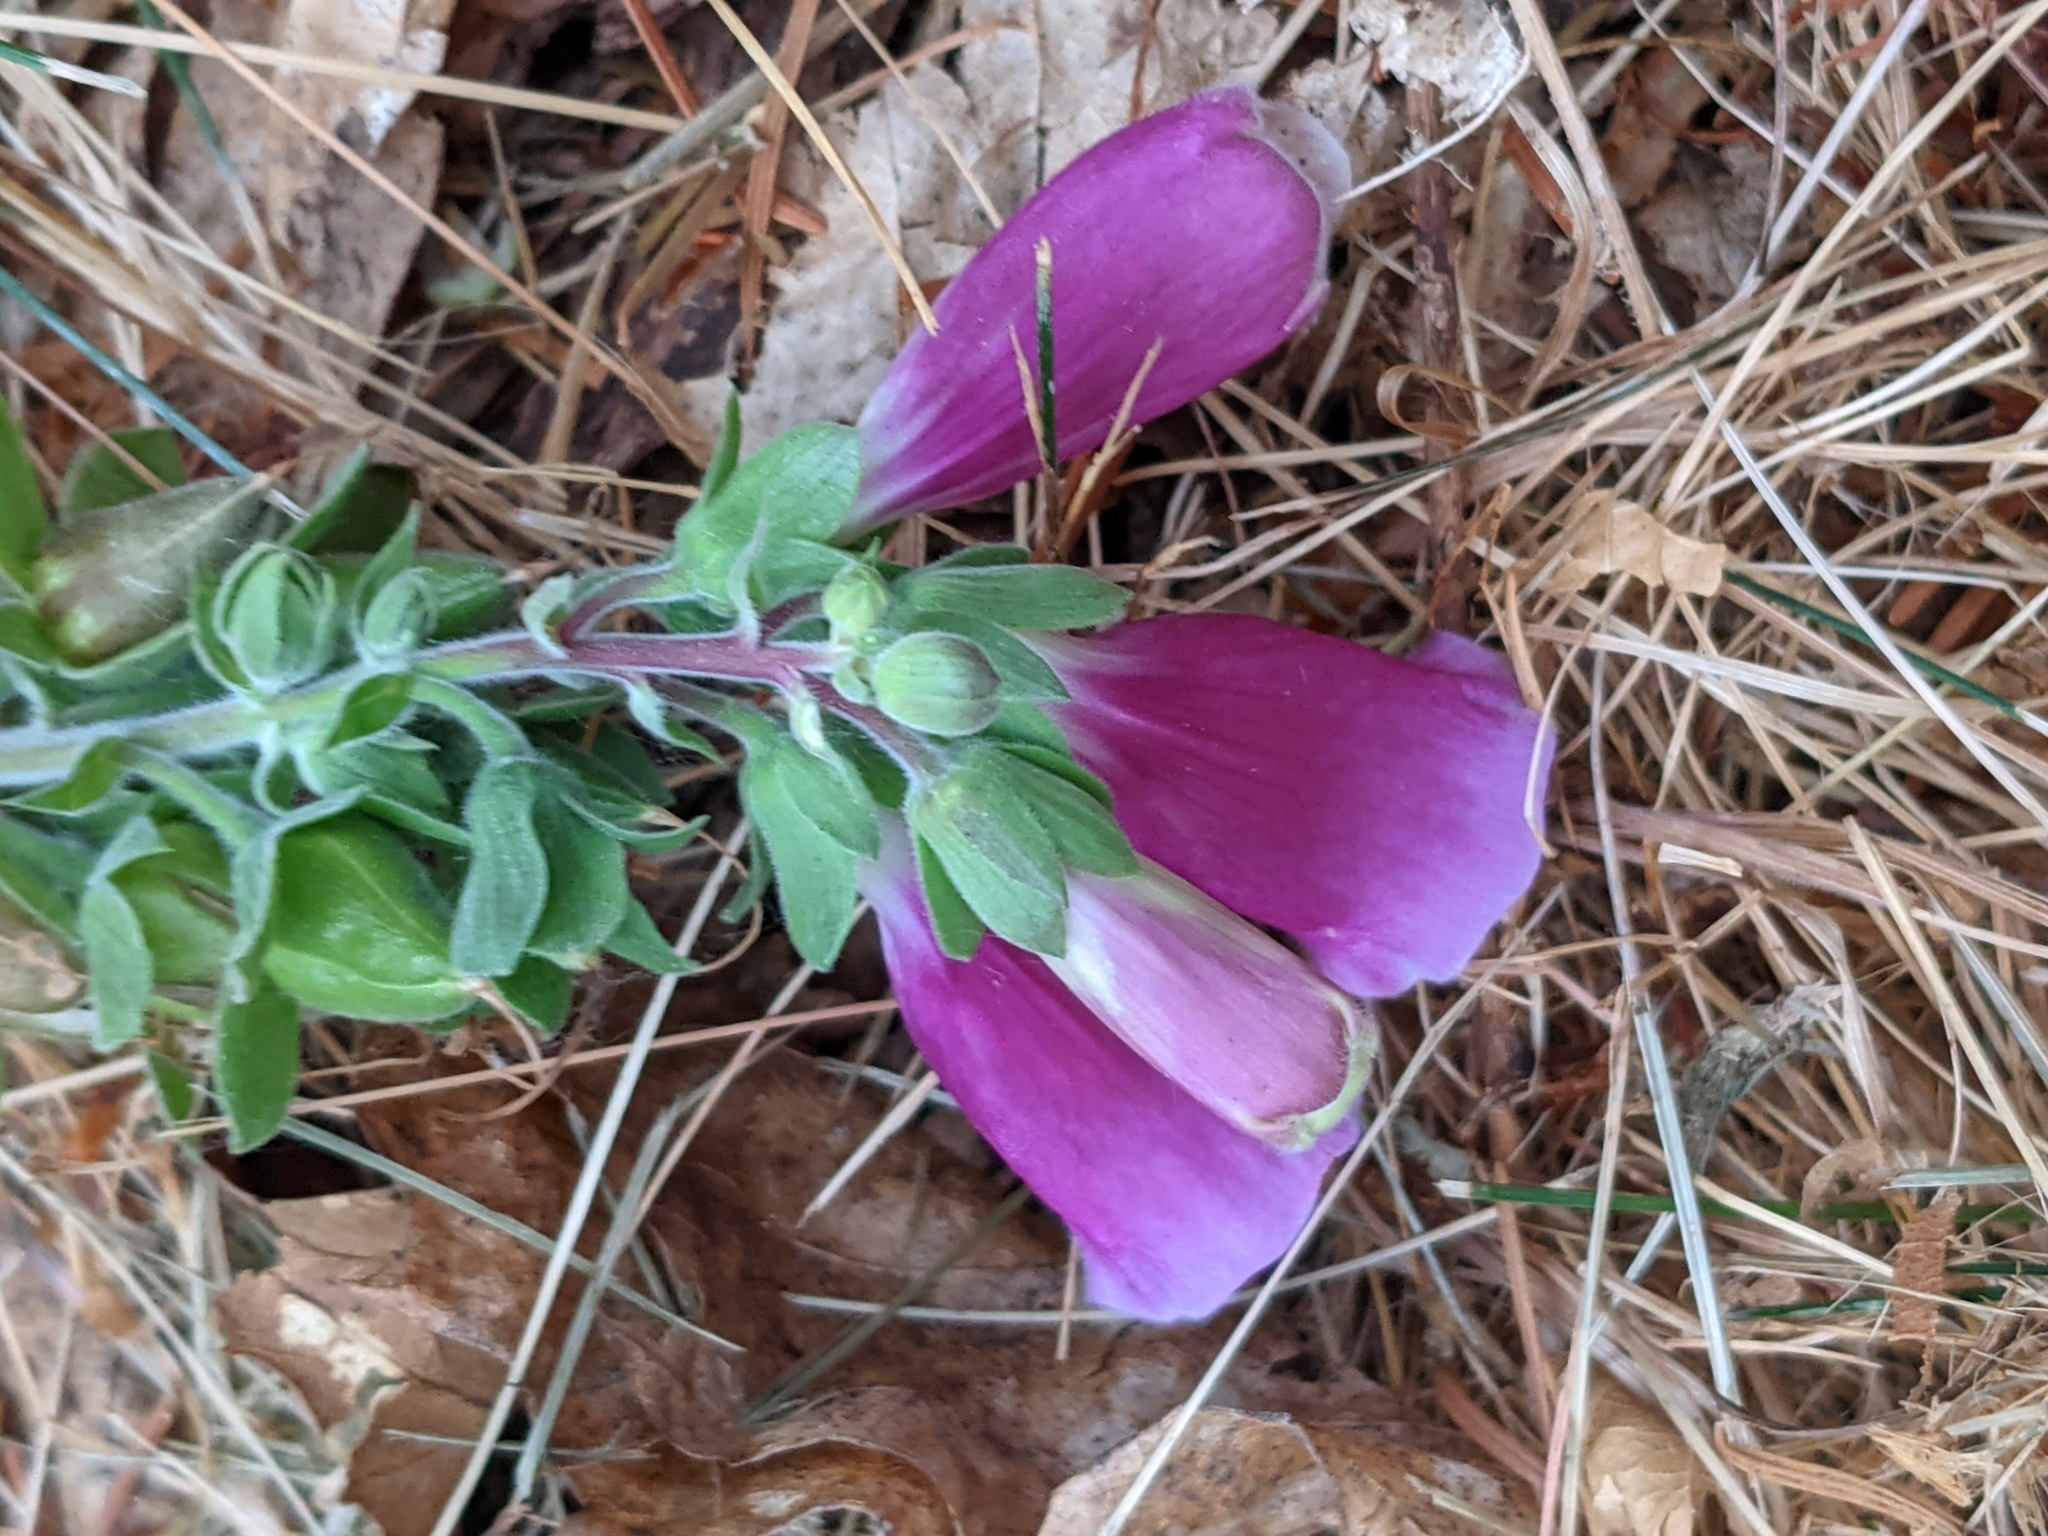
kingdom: Plantae
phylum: Tracheophyta
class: Magnoliopsida
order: Lamiales
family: Plantaginaceae
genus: Digitalis
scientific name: Digitalis purpurea
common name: Foxglove
